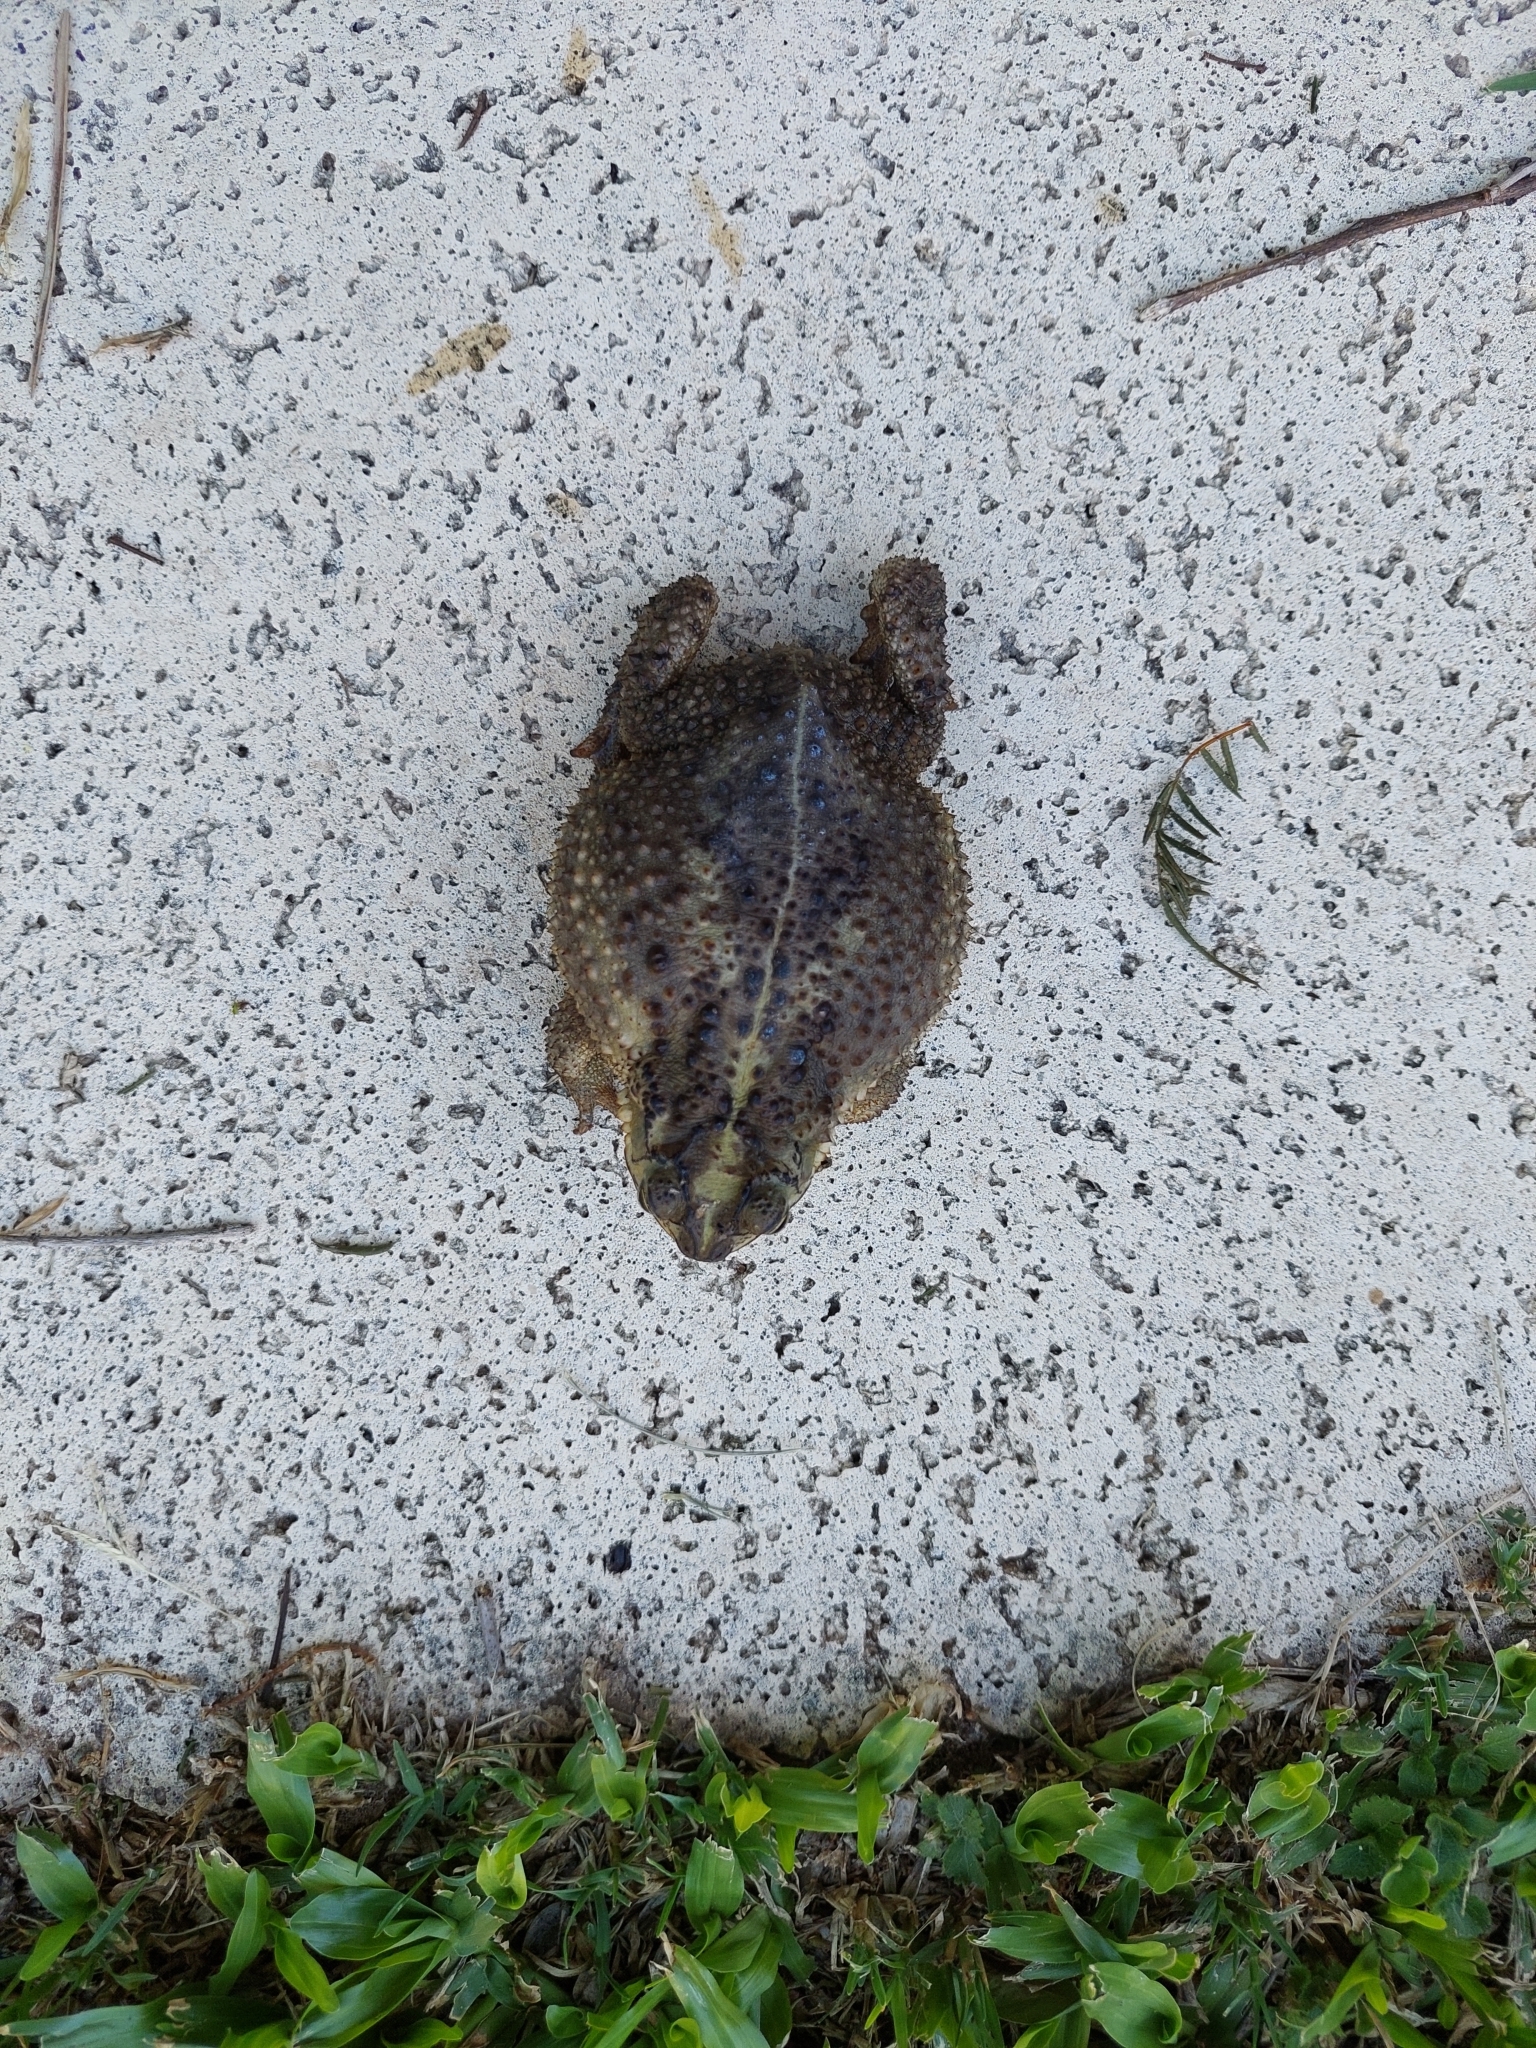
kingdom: Animalia
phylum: Chordata
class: Amphibia
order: Anura
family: Bufonidae
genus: Rhinella
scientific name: Rhinella dorbignyi
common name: D´orbigny’s toad
